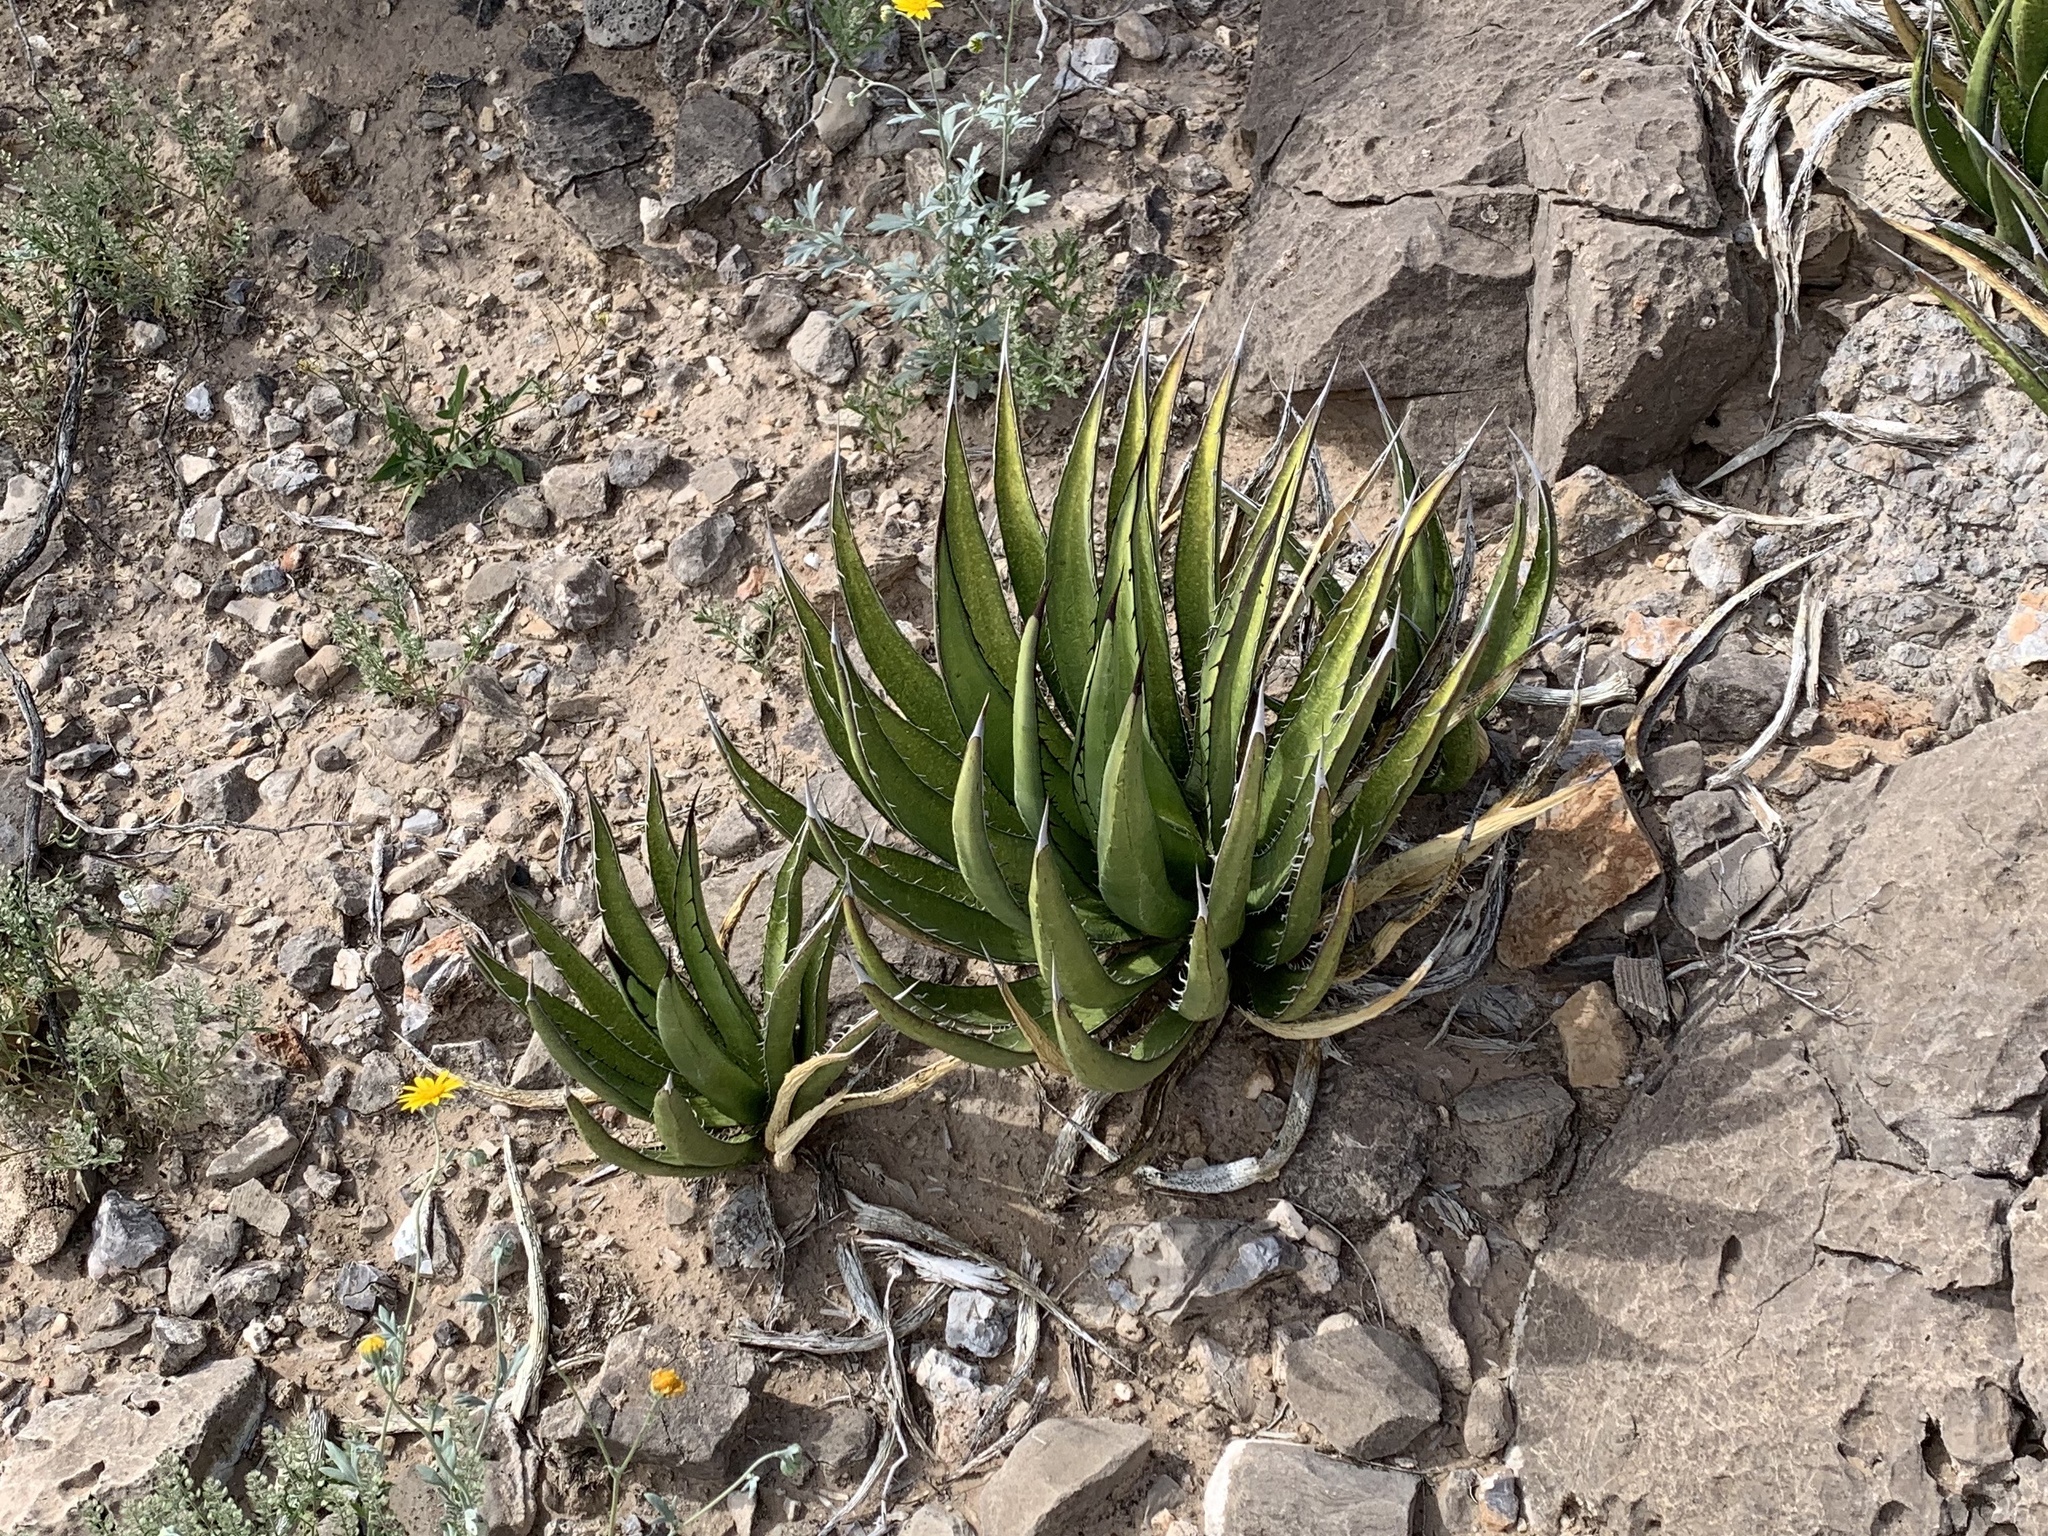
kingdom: Plantae
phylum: Tracheophyta
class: Liliopsida
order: Asparagales
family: Asparagaceae
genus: Agave
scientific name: Agave lechuguilla
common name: Lecheguilla agave
